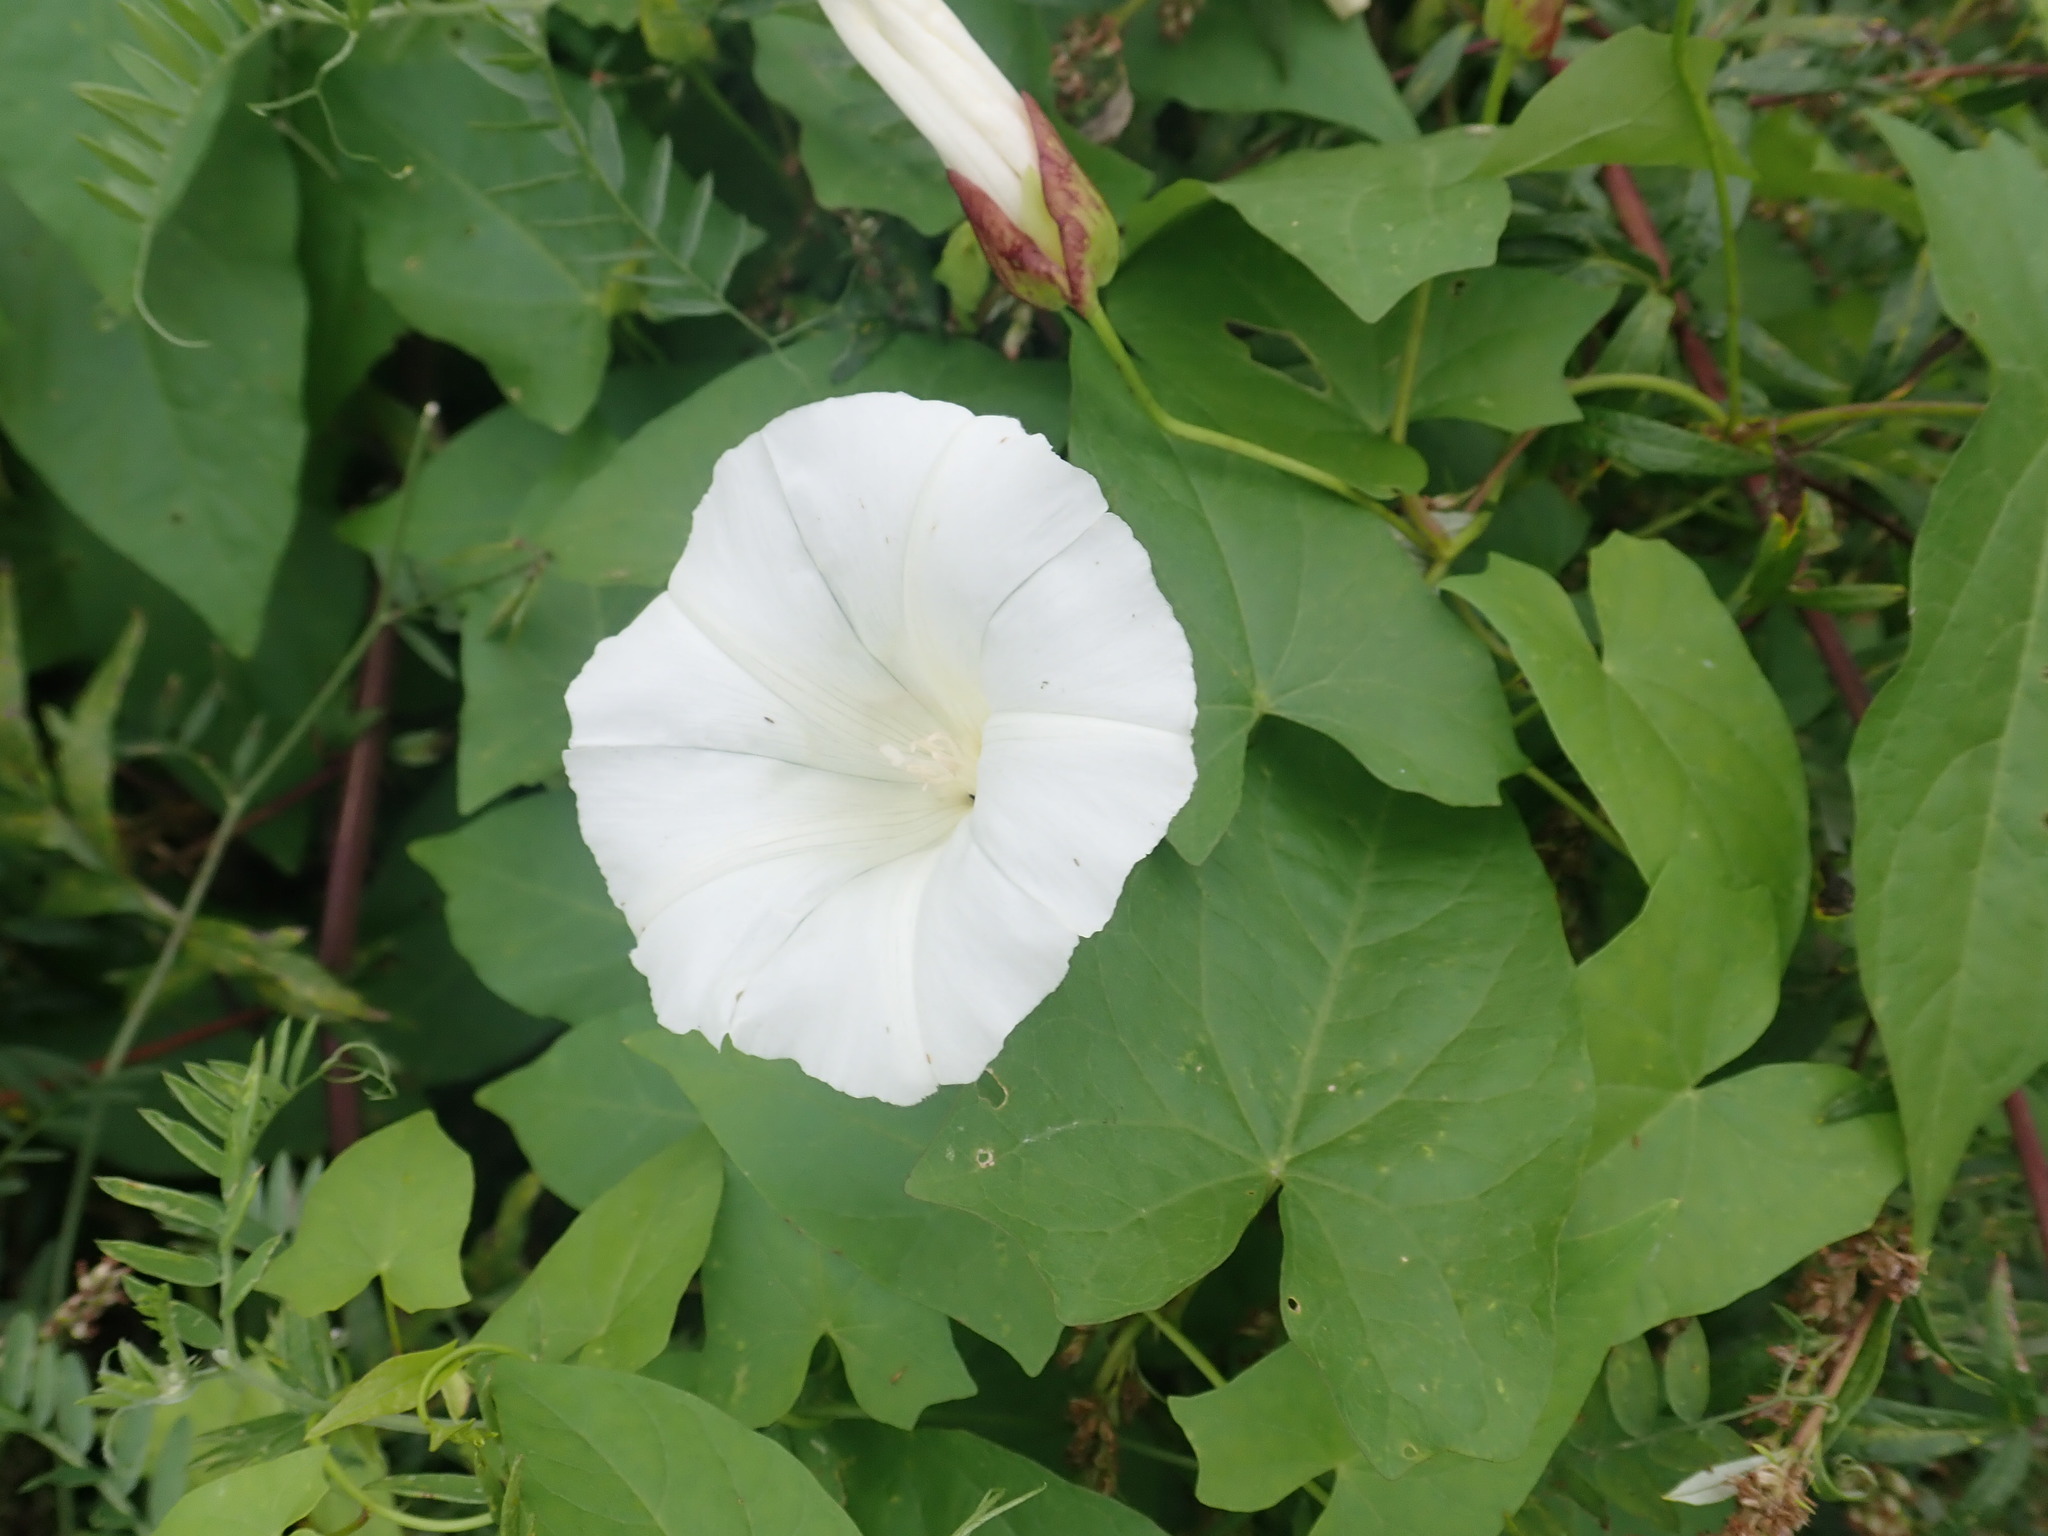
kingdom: Plantae
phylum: Tracheophyta
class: Magnoliopsida
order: Solanales
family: Convolvulaceae
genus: Calystegia
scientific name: Calystegia sepium
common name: Hedge bindweed
